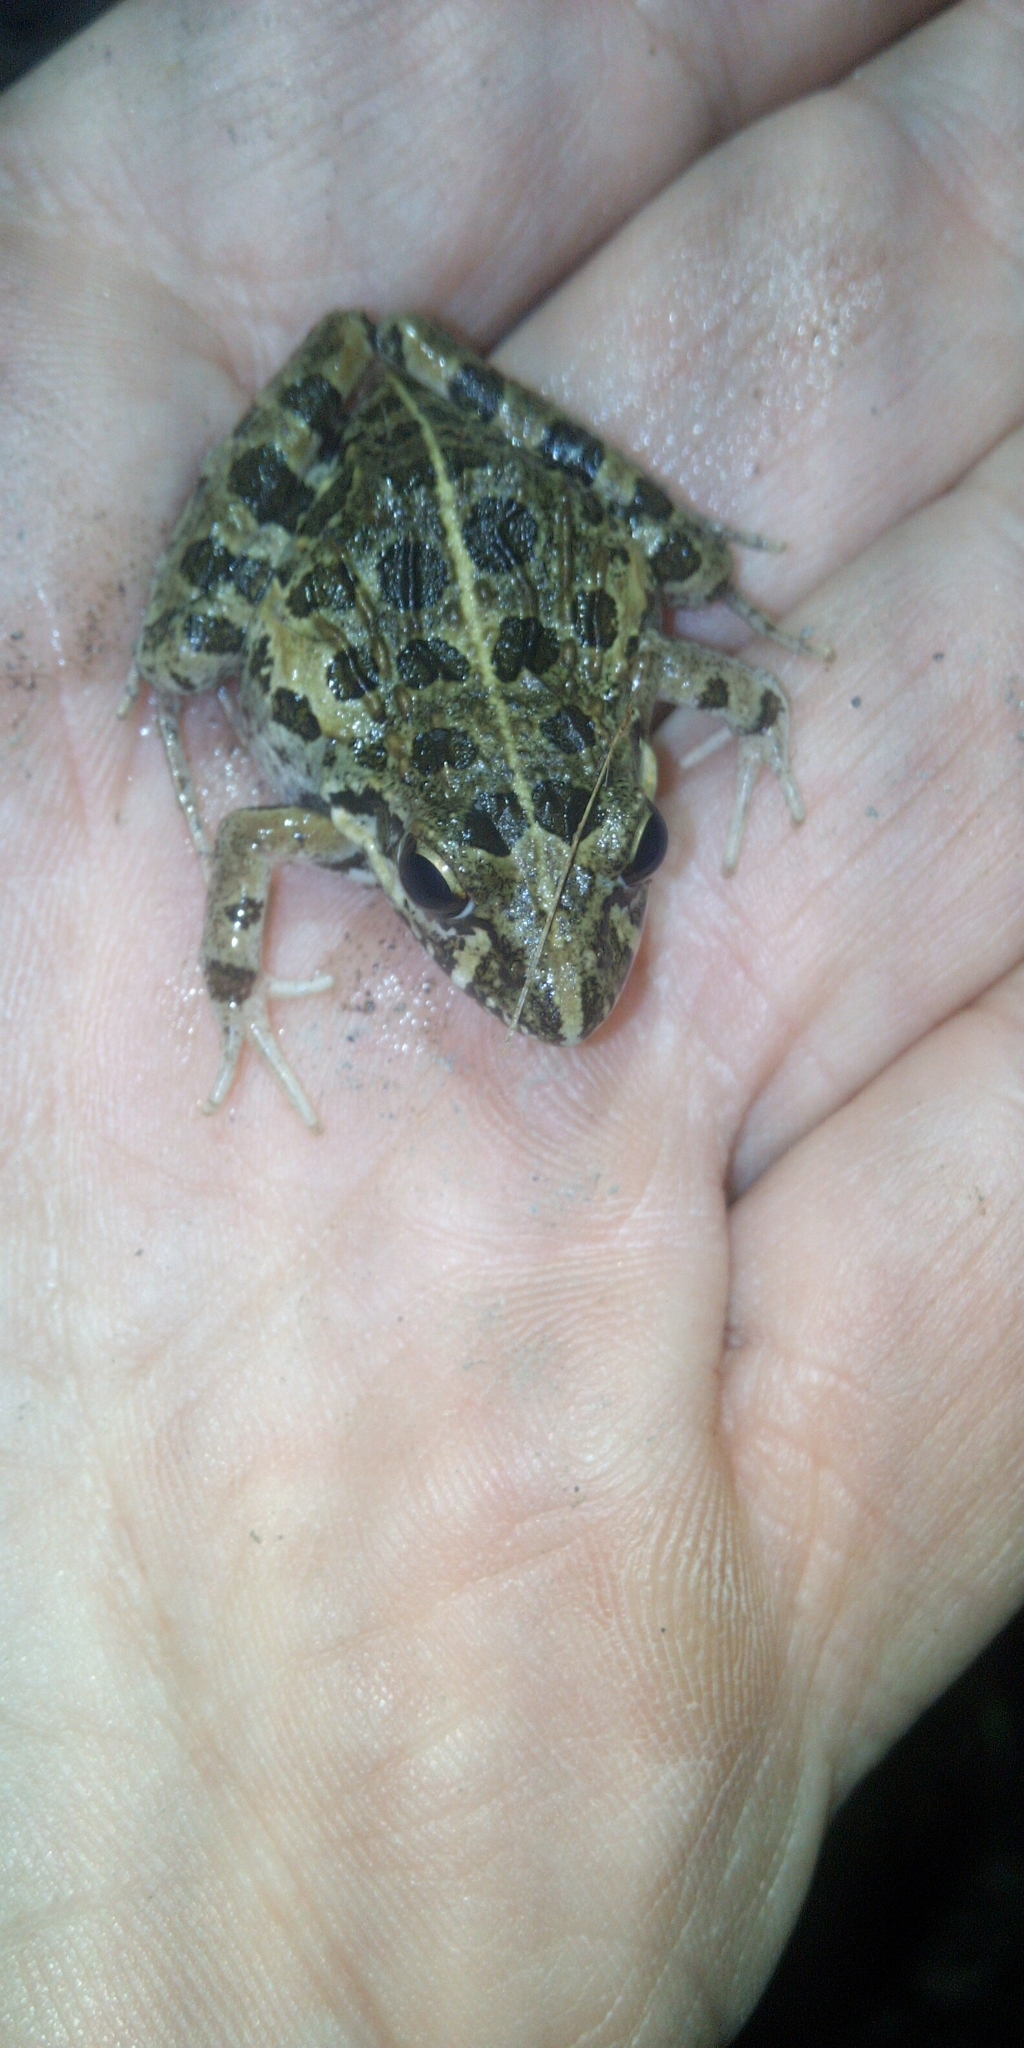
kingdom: Animalia
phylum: Chordata
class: Amphibia
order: Anura
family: Pyxicephalidae
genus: Strongylopus
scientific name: Strongylopus grayii
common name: Gray's stream frog
